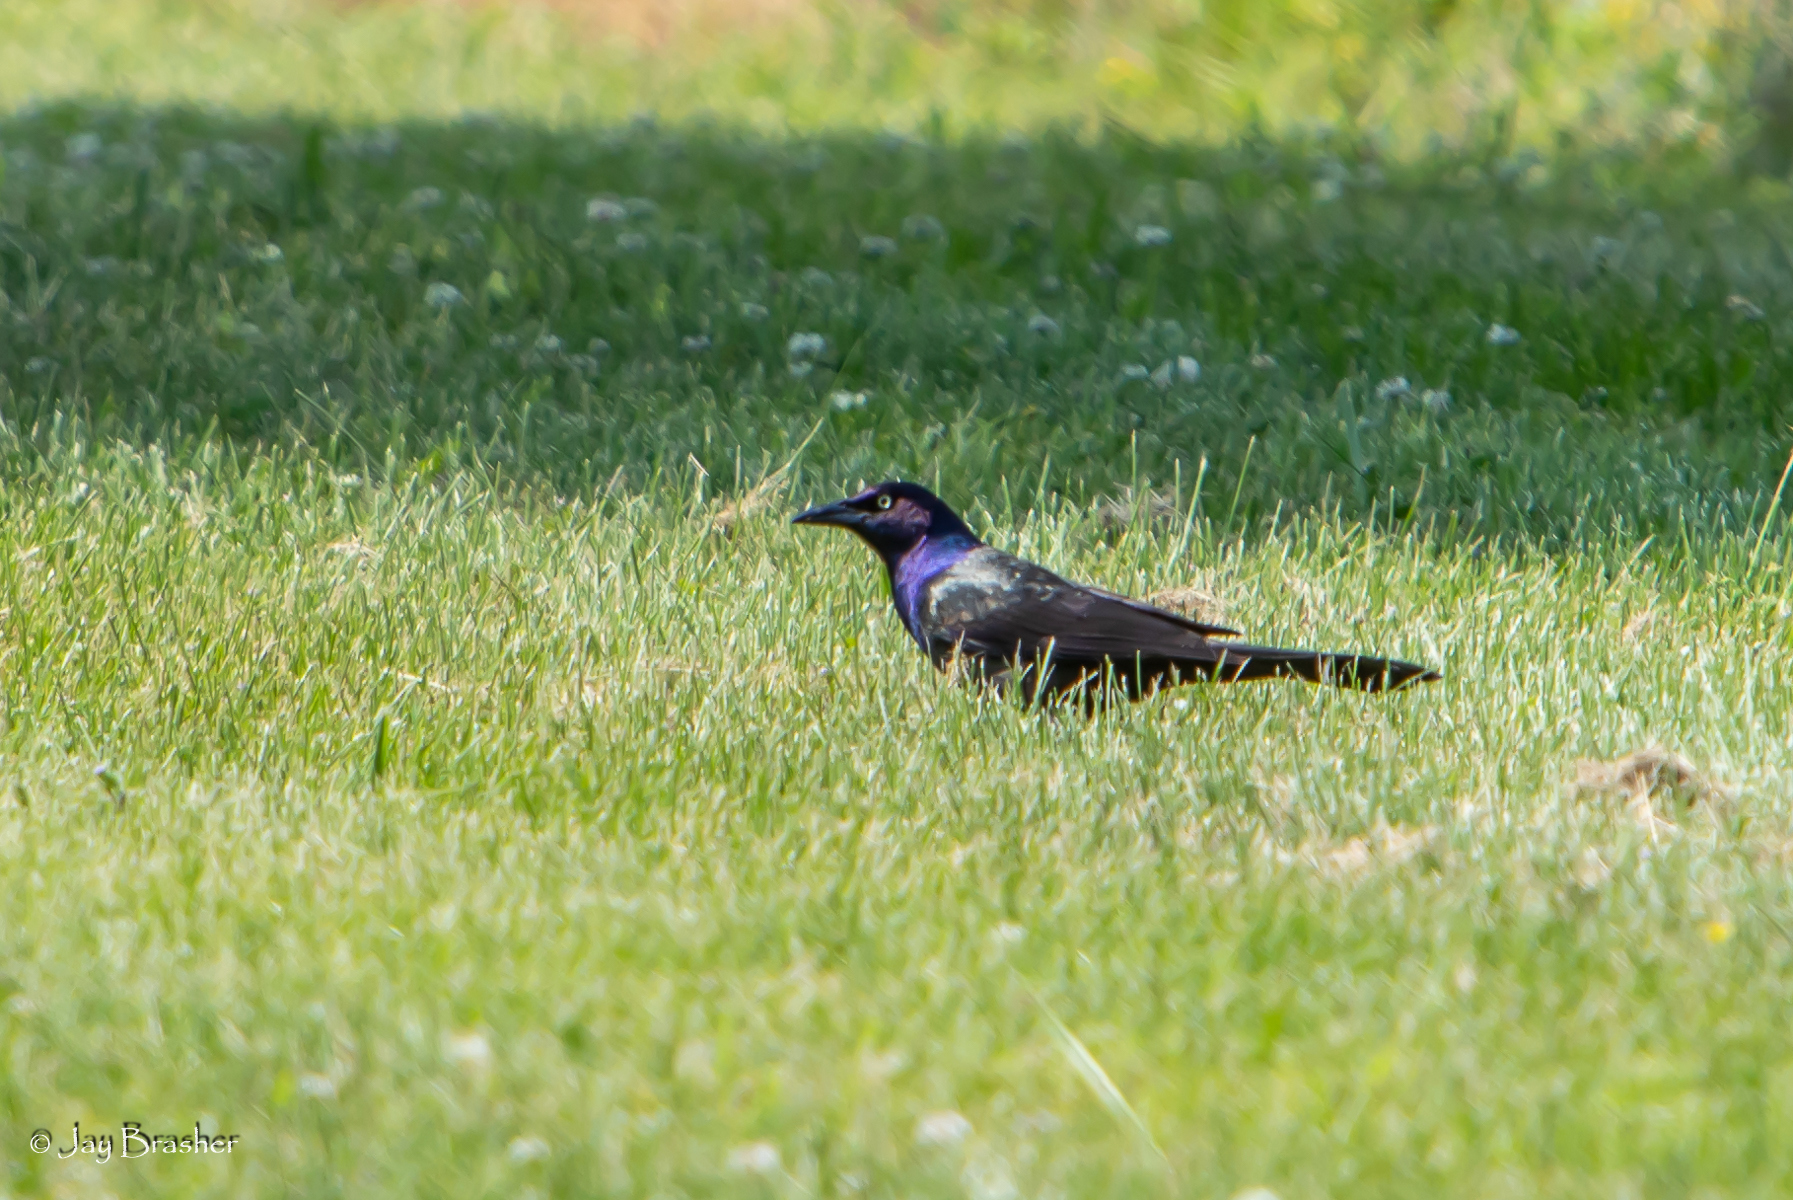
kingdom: Animalia
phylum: Chordata
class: Aves
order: Passeriformes
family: Icteridae
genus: Quiscalus
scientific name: Quiscalus quiscula
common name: Common grackle
